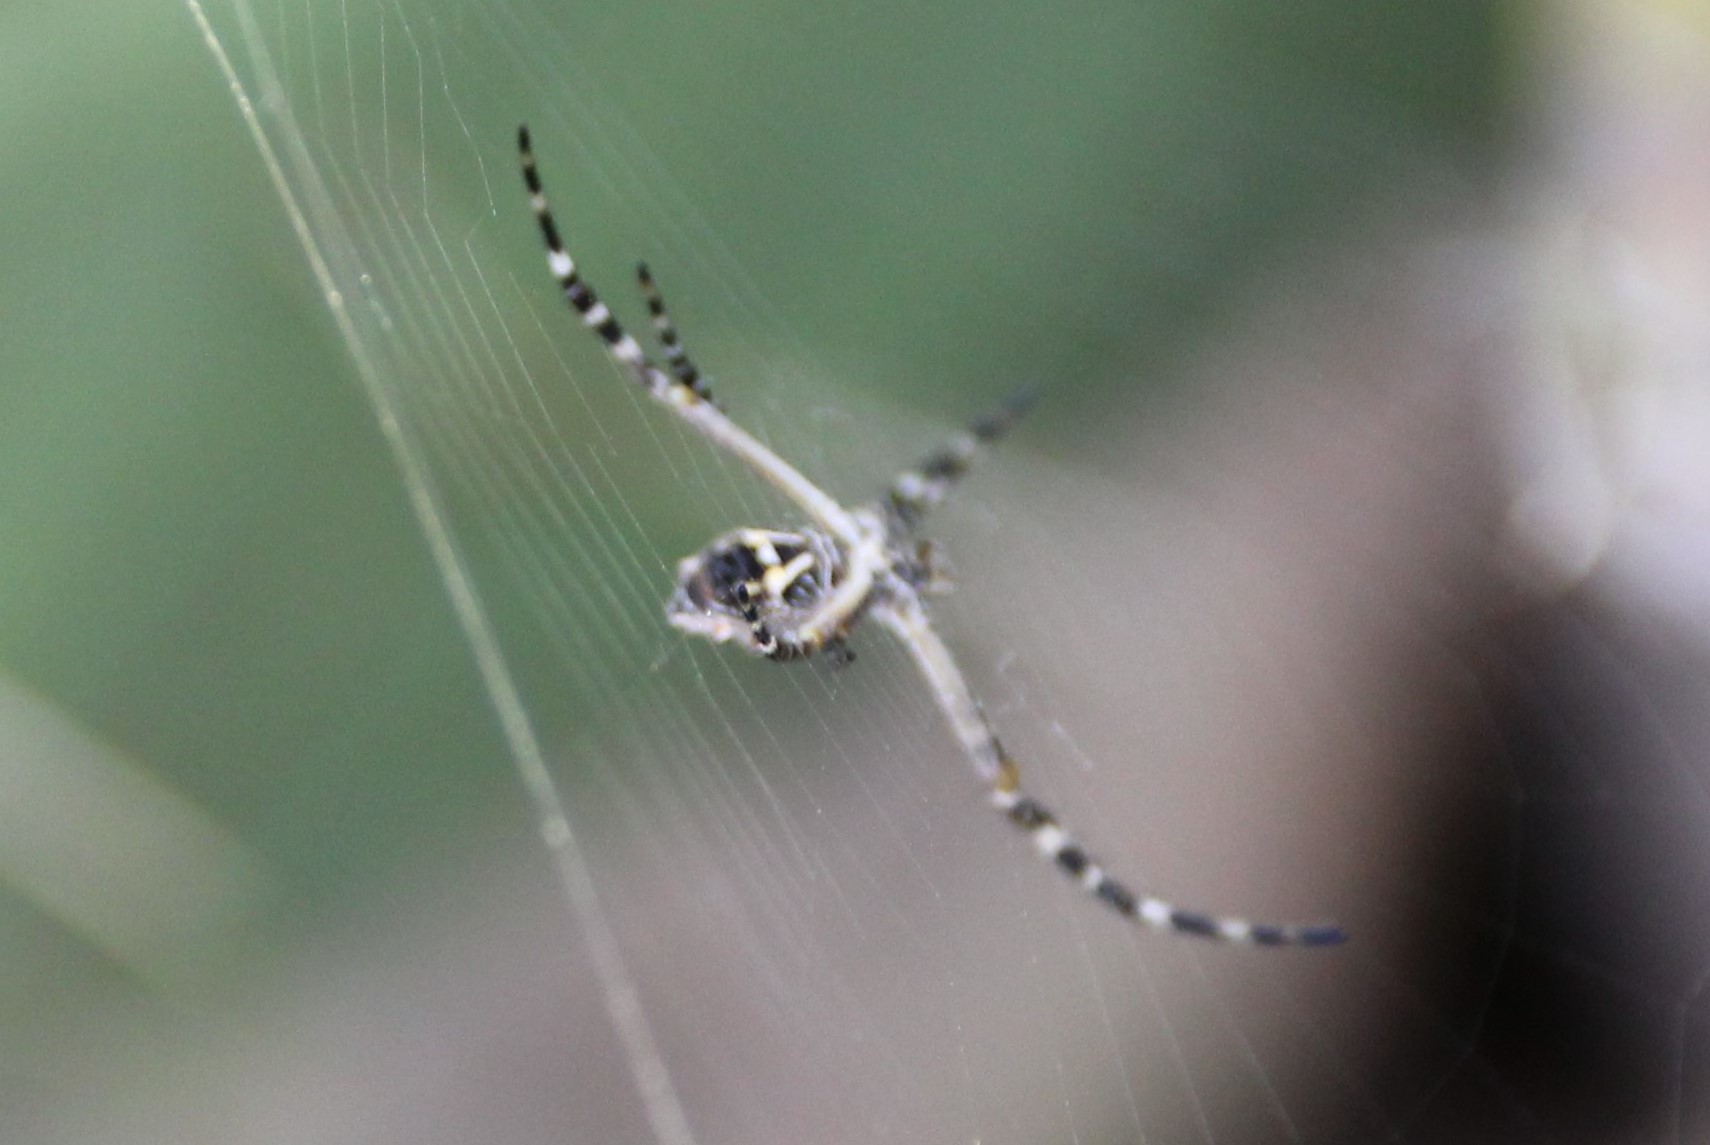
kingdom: Animalia
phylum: Arthropoda
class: Arachnida
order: Araneae
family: Araneidae
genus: Argiope
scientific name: Argiope argentata
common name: Orb weavers
